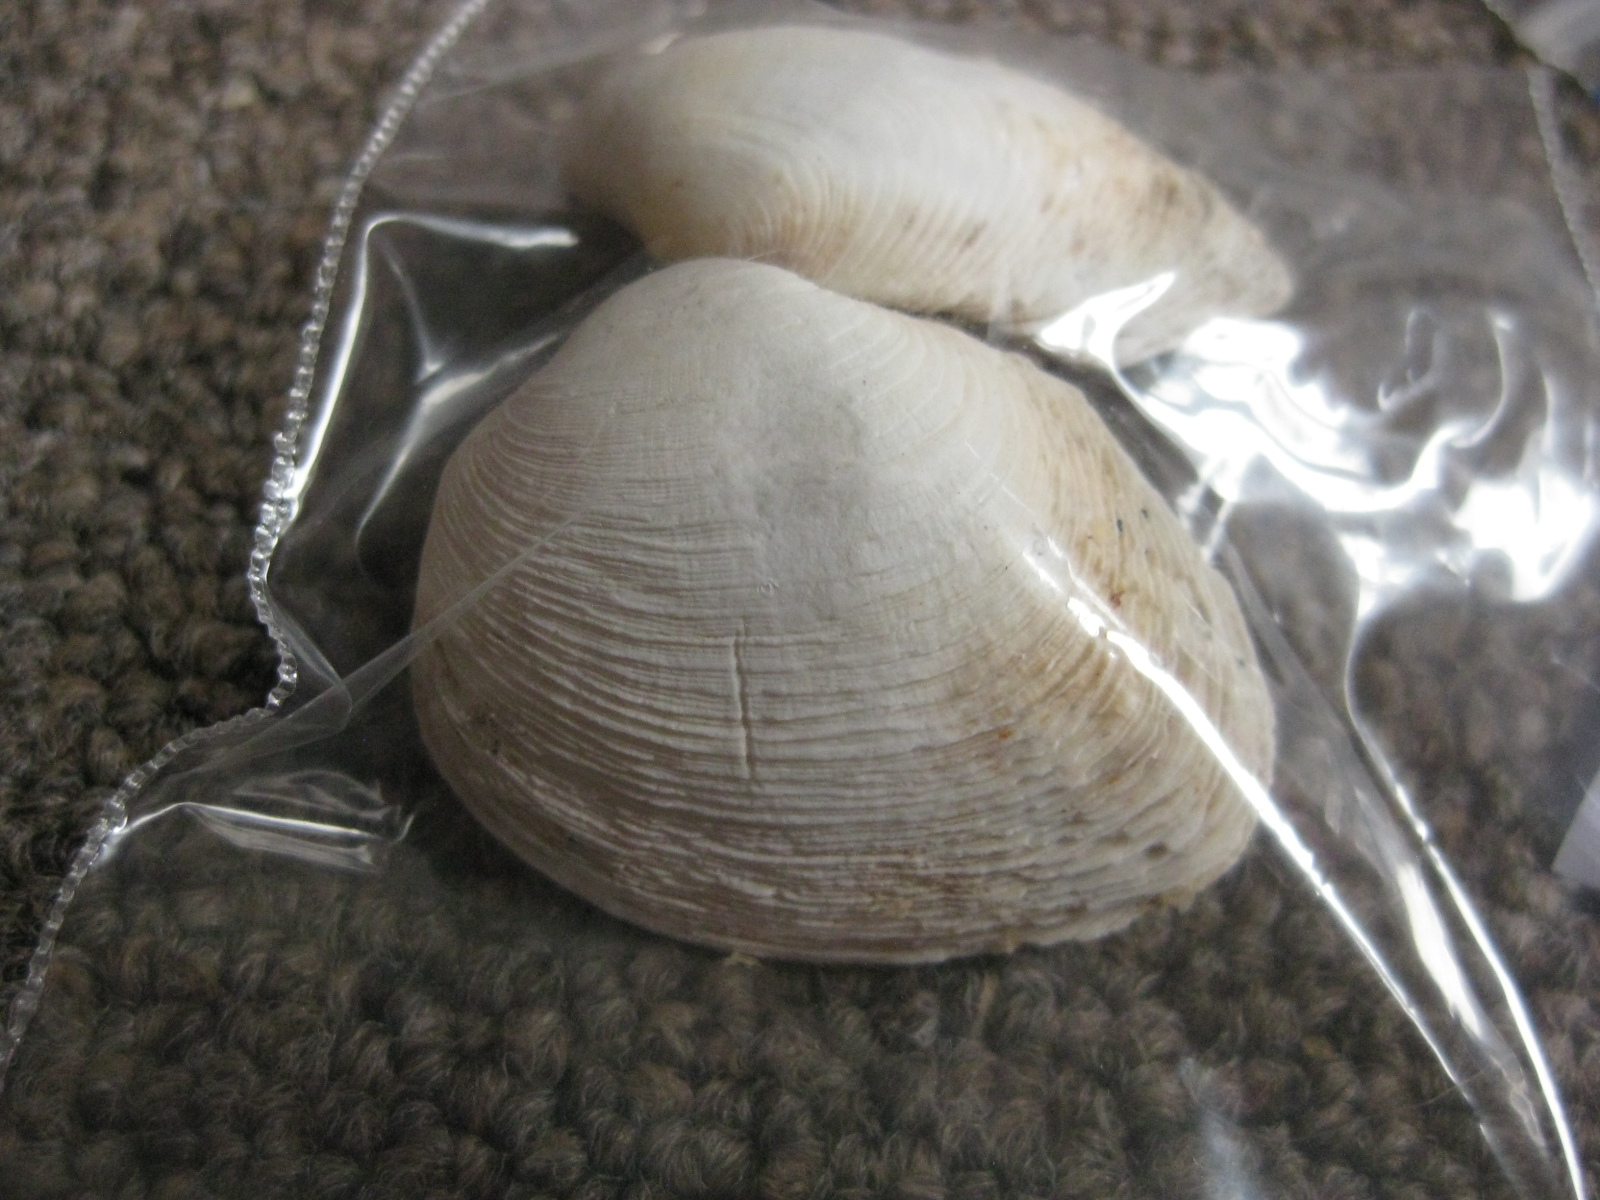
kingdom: Animalia
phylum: Mollusca
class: Bivalvia
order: Venerida
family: Veneridae
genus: Irus
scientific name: Irus reflexus
